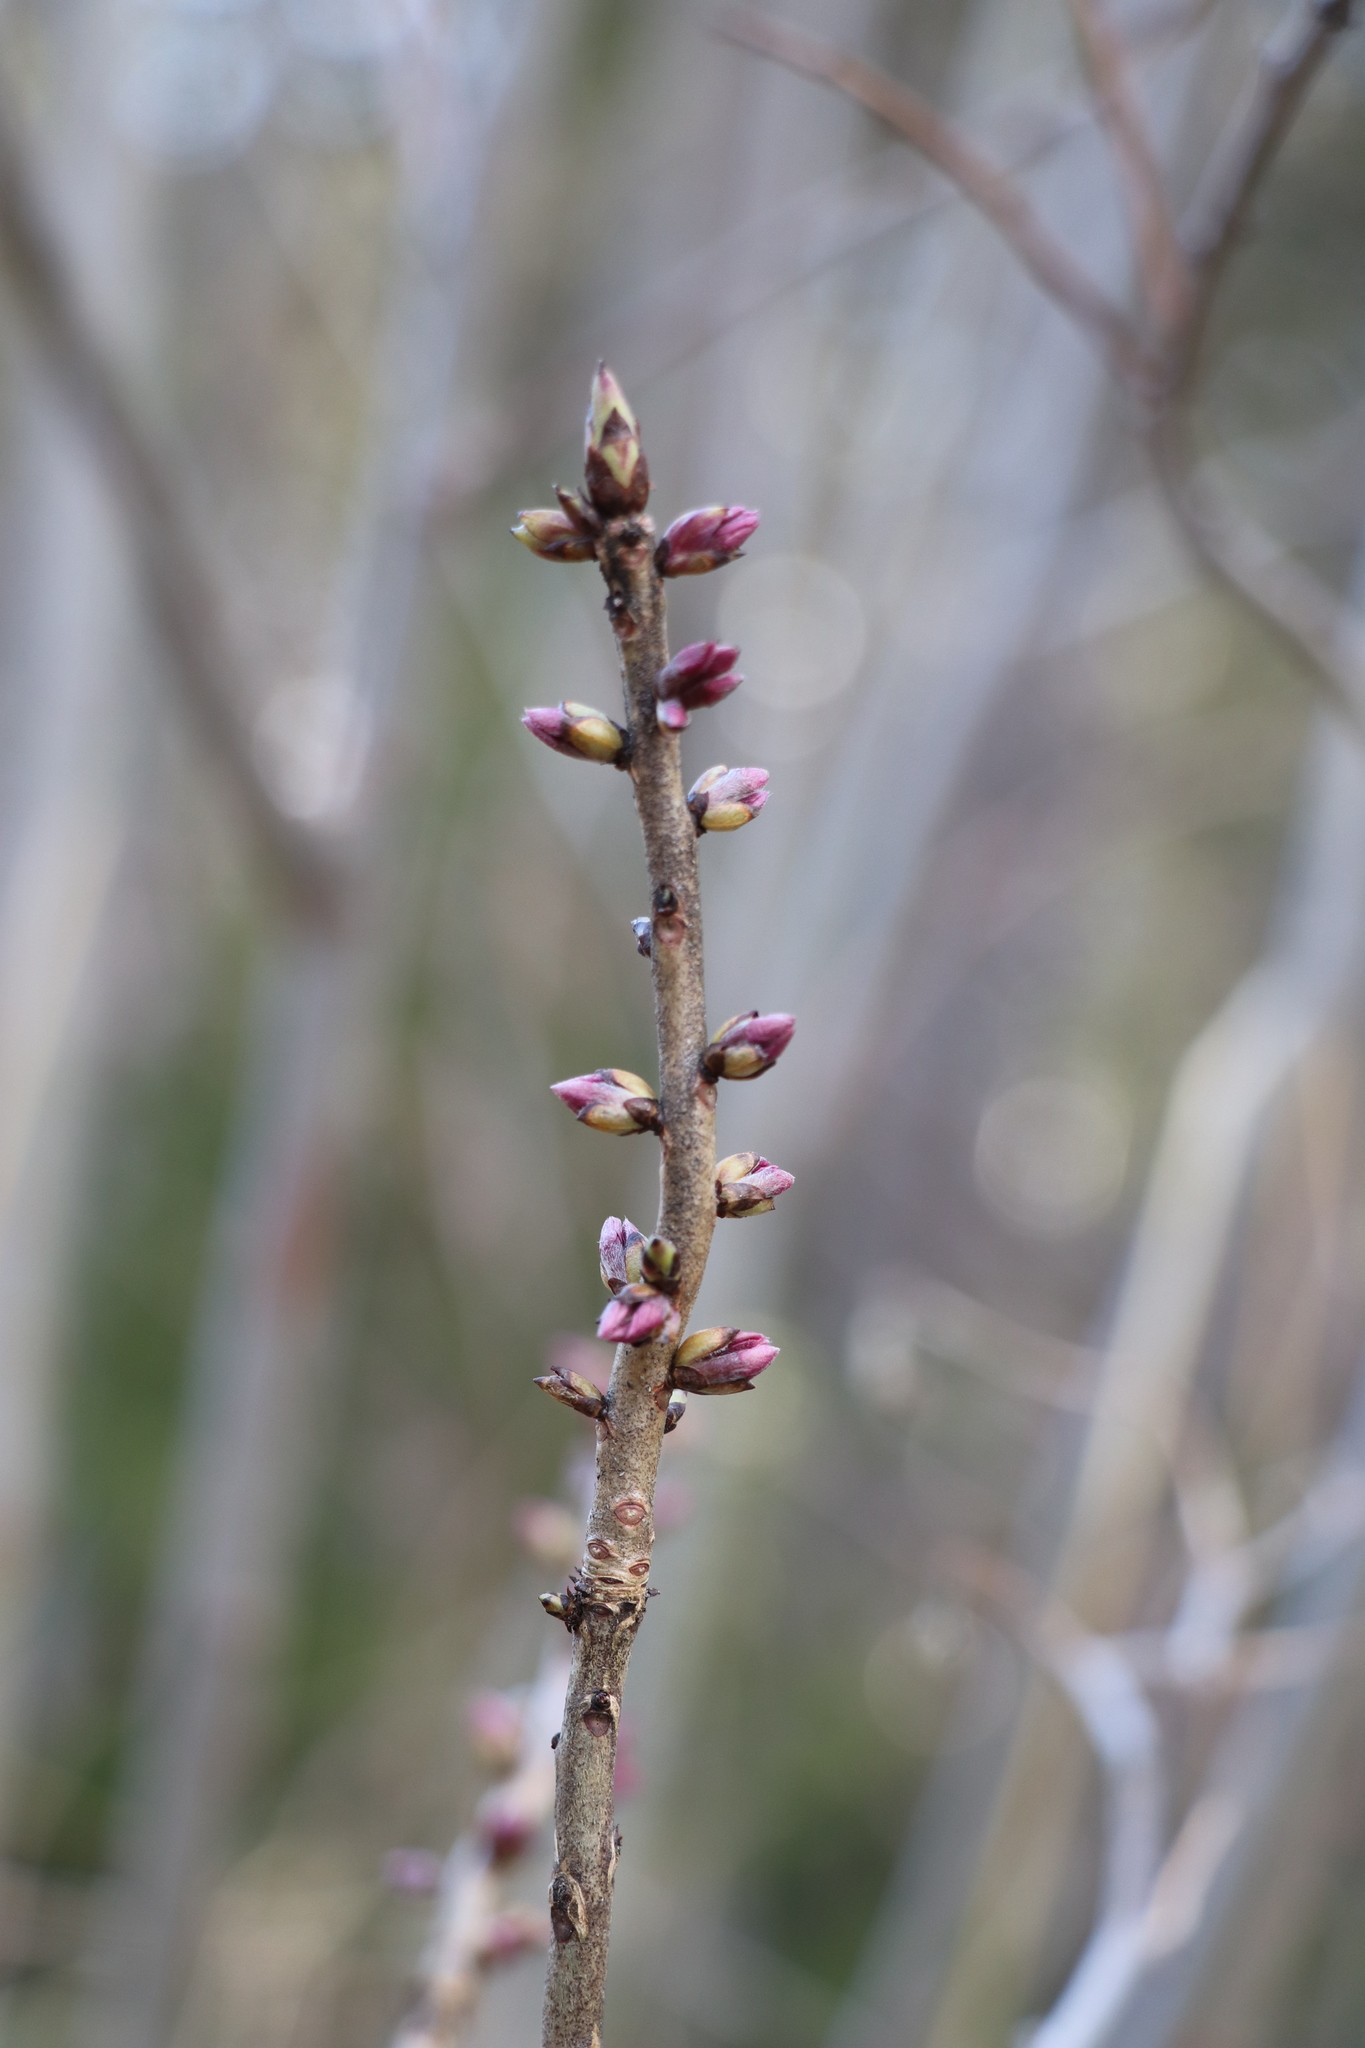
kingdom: Plantae
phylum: Tracheophyta
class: Magnoliopsida
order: Malvales
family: Thymelaeaceae
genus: Daphne
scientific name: Daphne mezereum
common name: Mezereon
